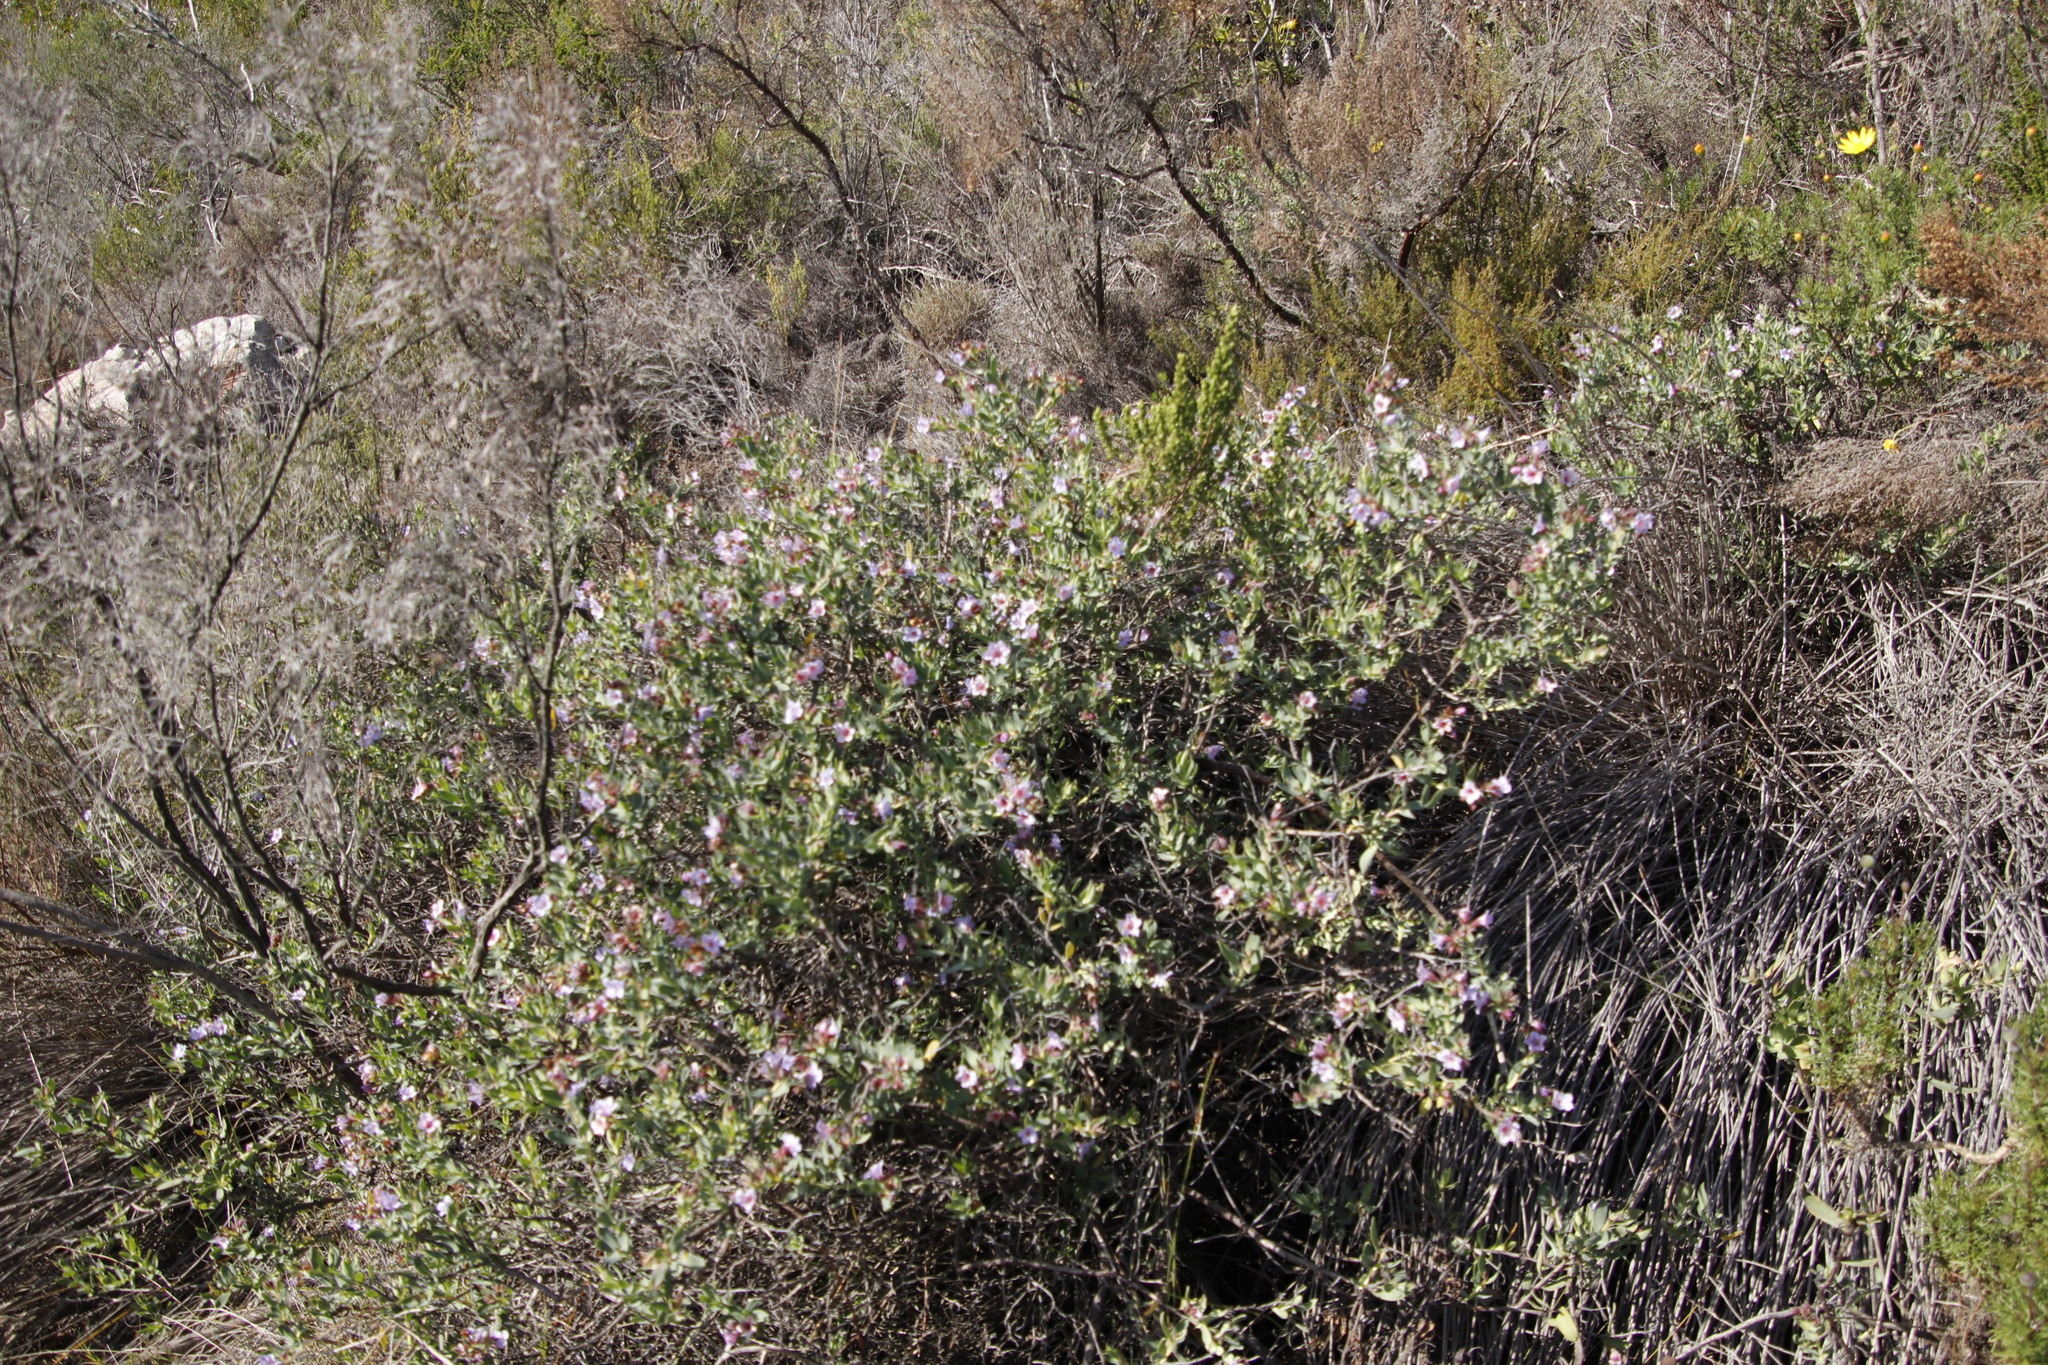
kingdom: Plantae
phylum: Tracheophyta
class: Magnoliopsida
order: Boraginales
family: Boraginaceae
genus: Lobostemon
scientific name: Lobostemon glaucophyllus
